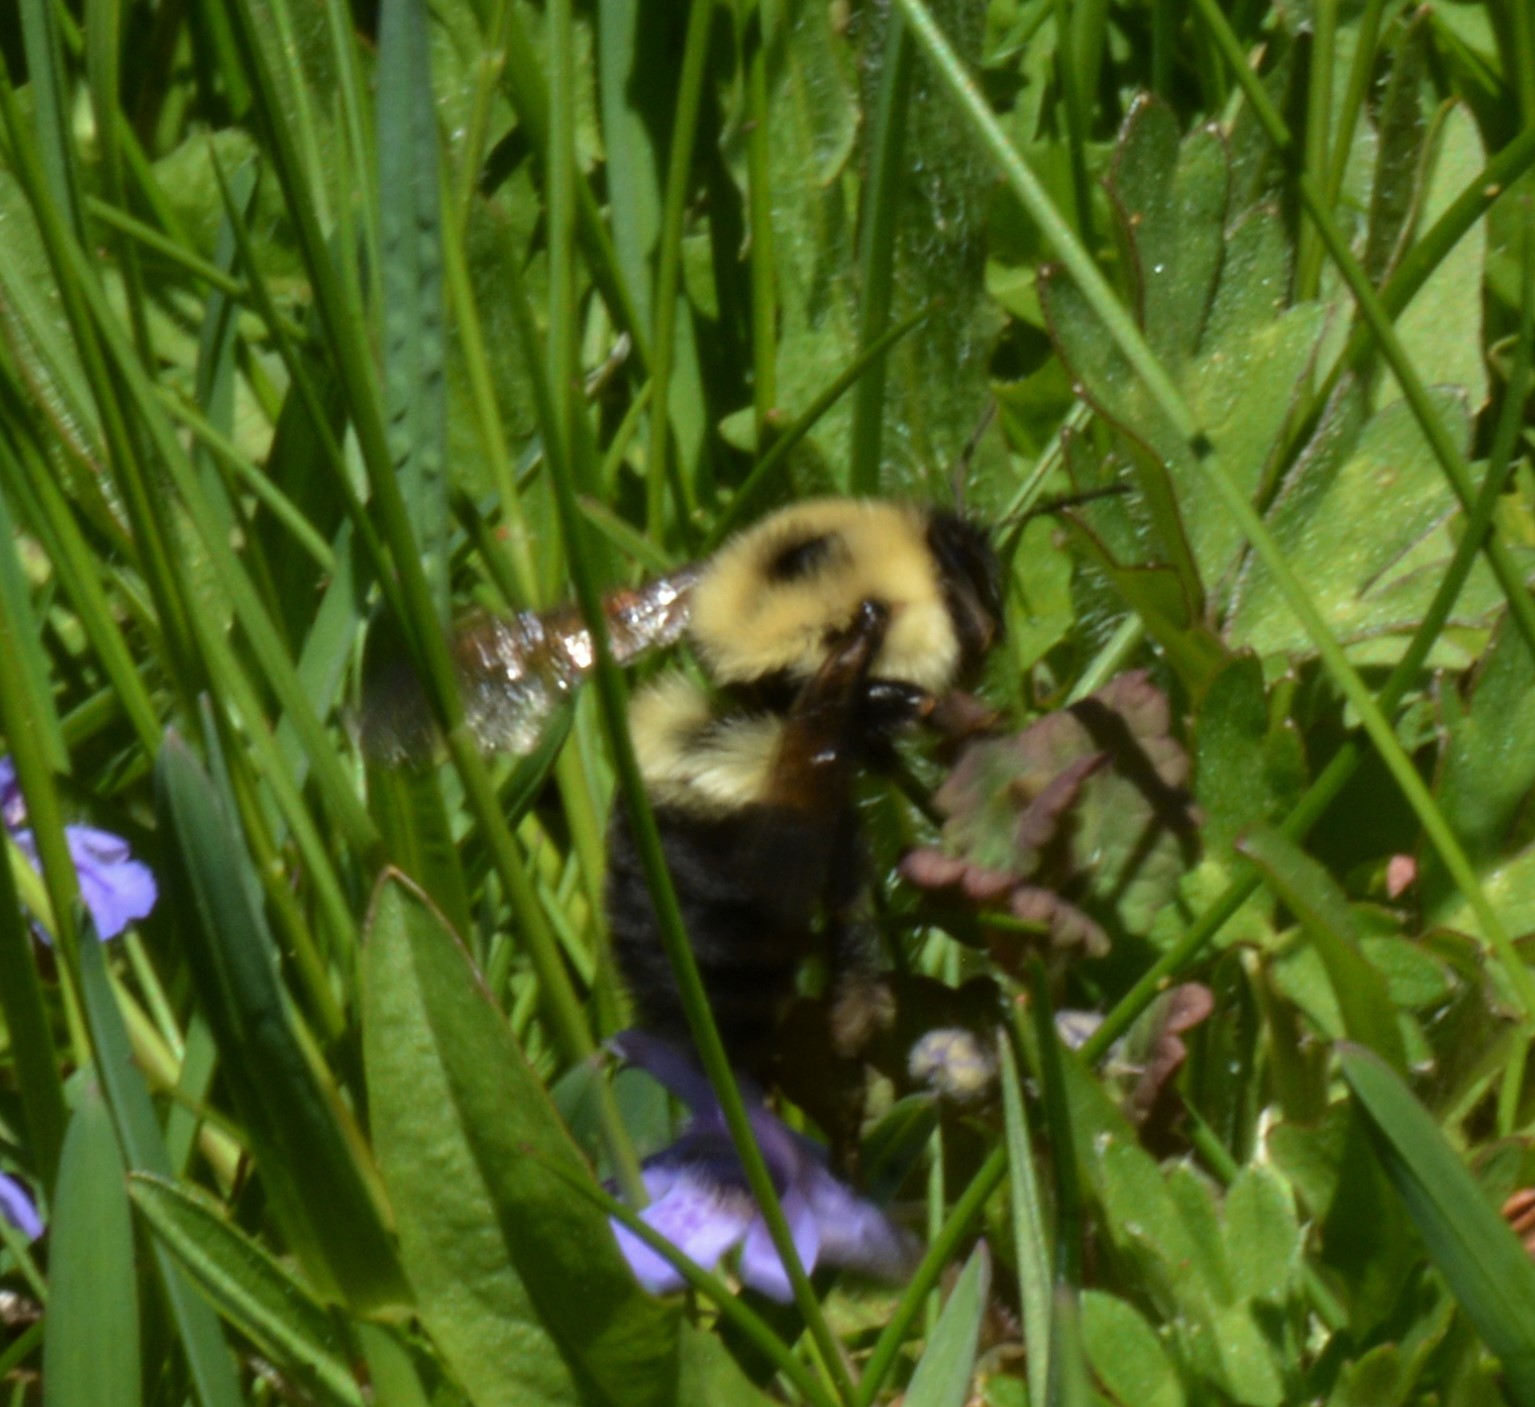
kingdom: Animalia
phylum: Arthropoda
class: Insecta
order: Hymenoptera
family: Apidae
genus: Bombus
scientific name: Bombus bimaculatus
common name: Two-spotted bumble bee
